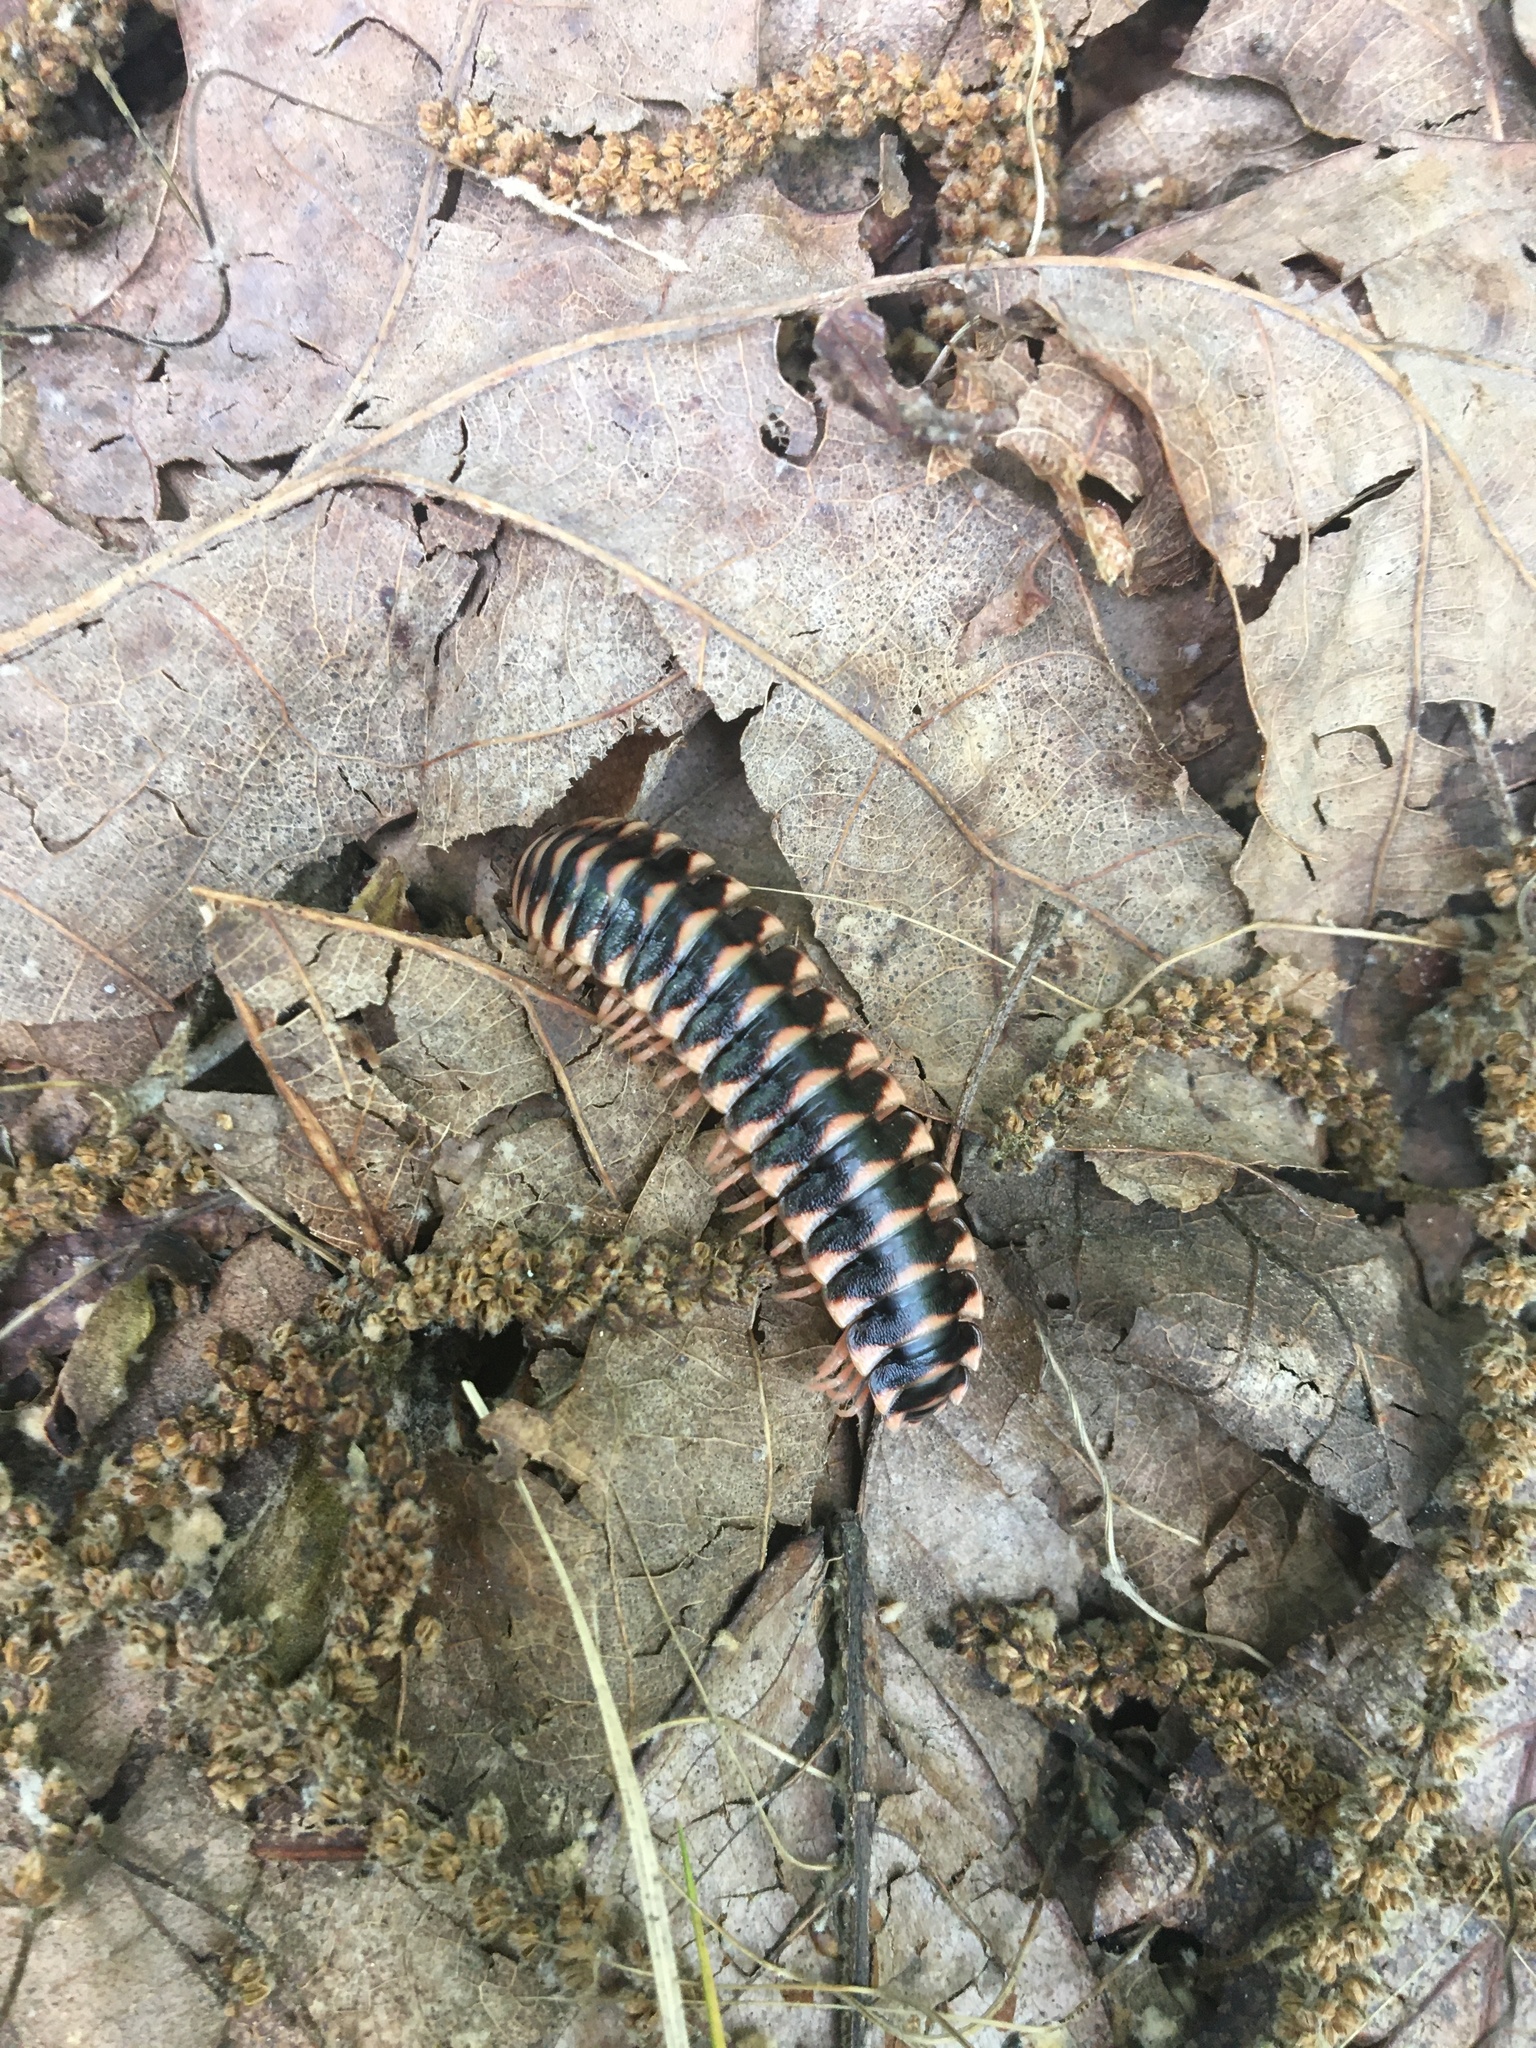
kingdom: Animalia
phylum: Arthropoda
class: Diplopoda
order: Polydesmida
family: Xystodesmidae
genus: Cherokia
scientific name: Cherokia georgiana
